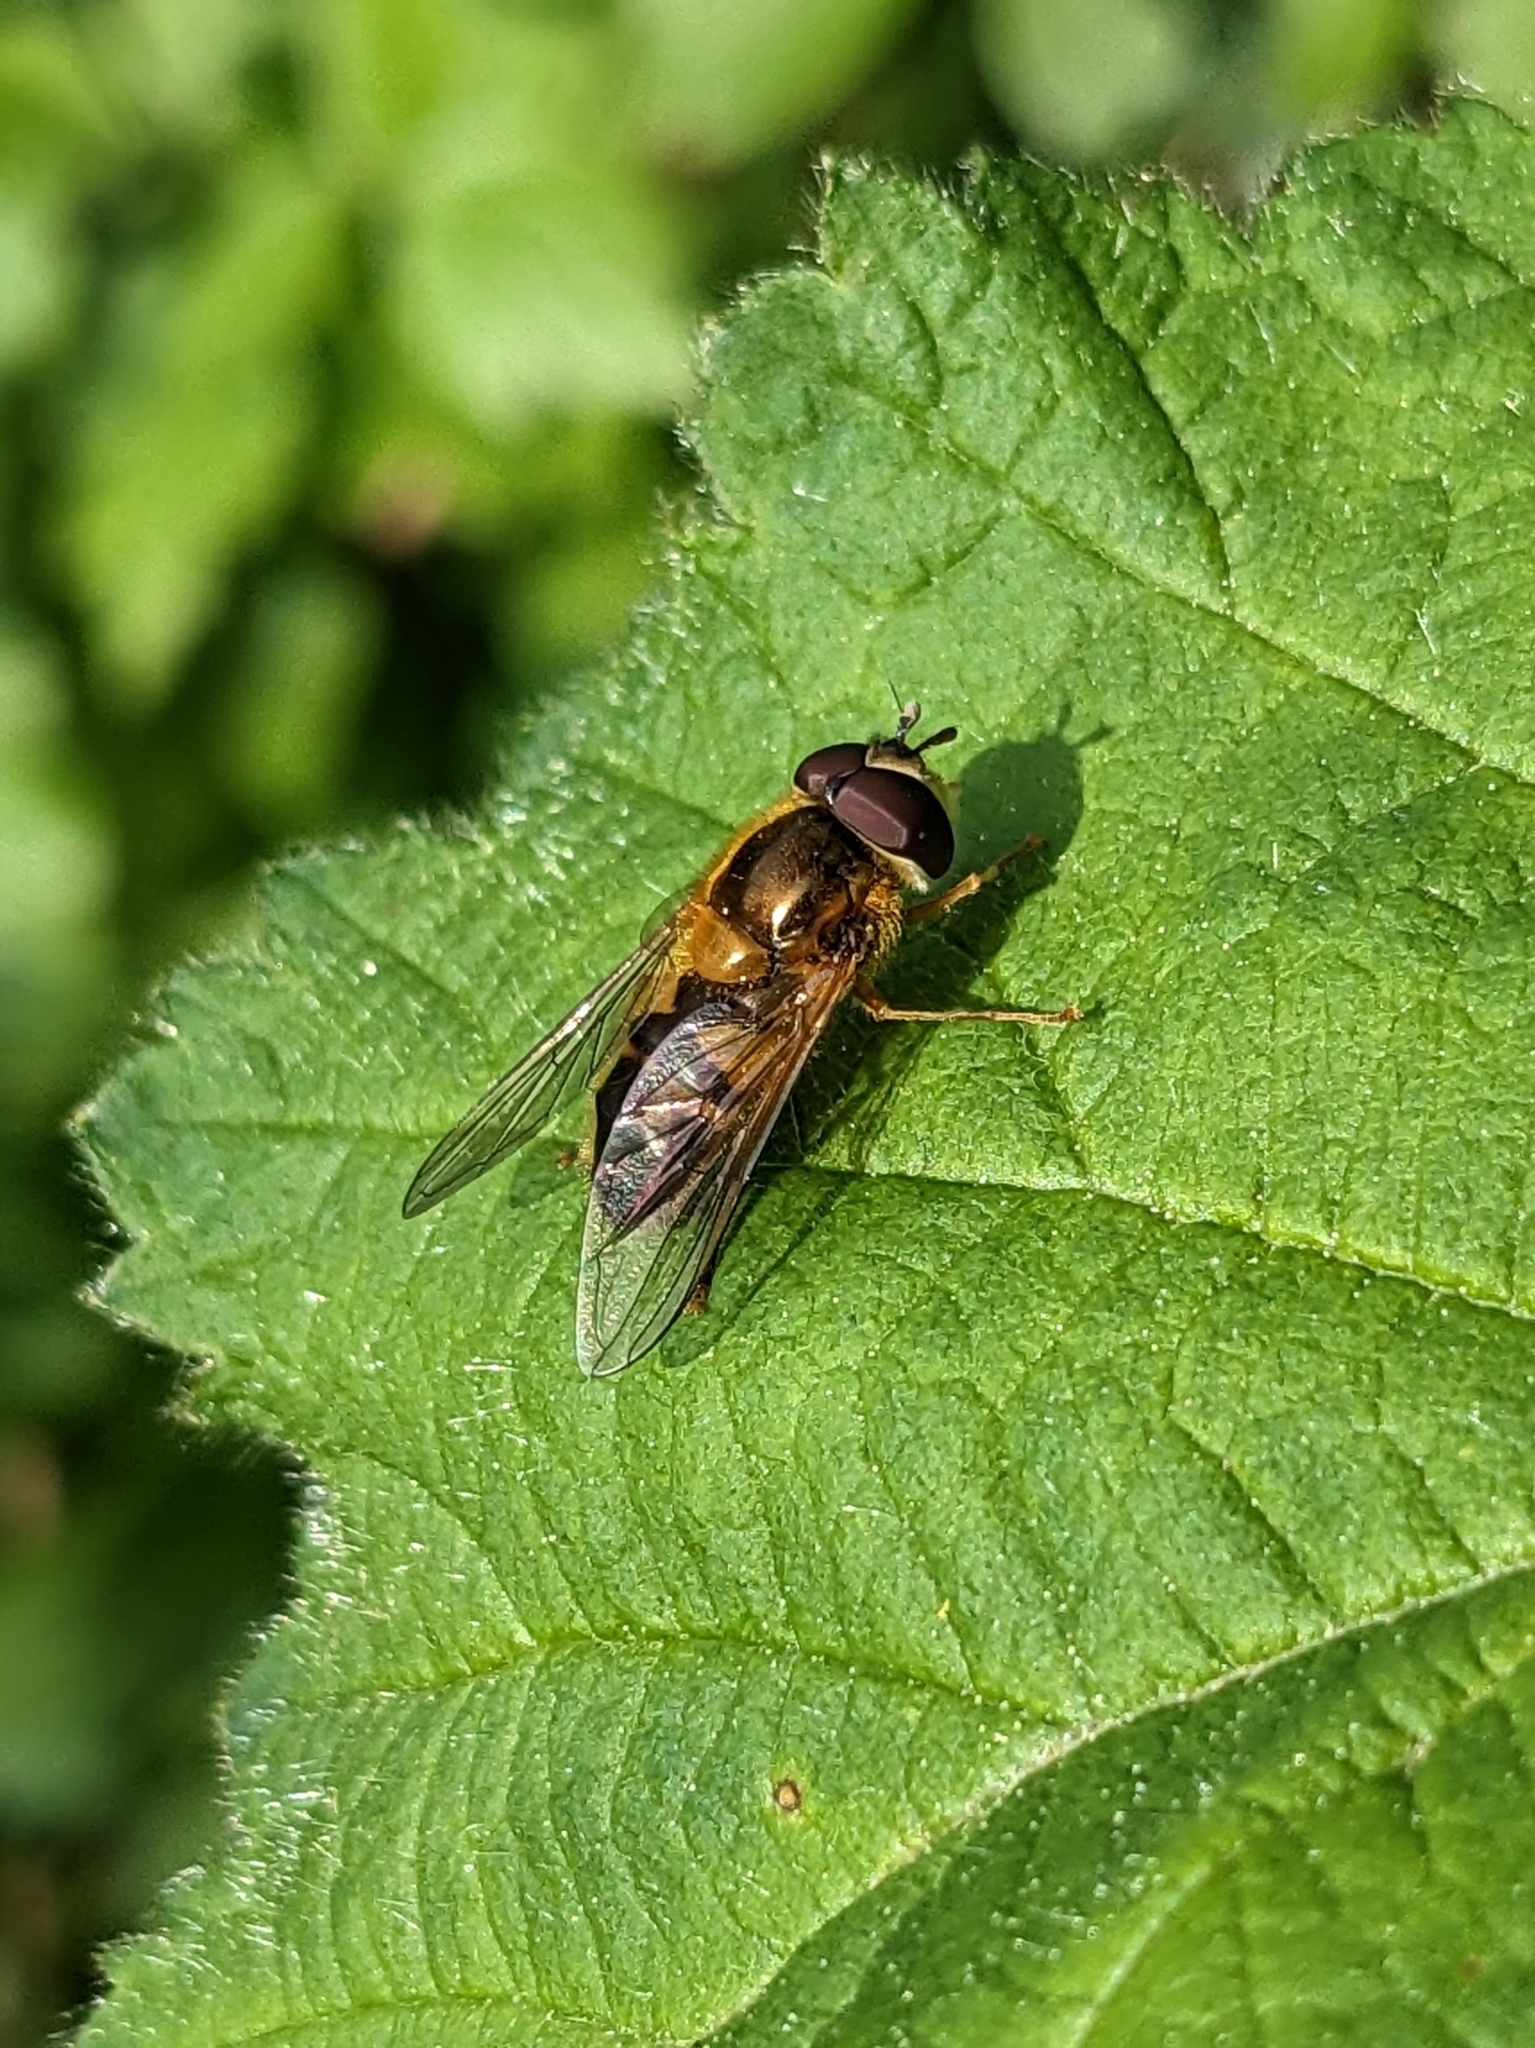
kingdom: Animalia
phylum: Arthropoda
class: Insecta
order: Diptera
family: Syrphidae
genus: Epistrophe
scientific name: Epistrophe eligans
